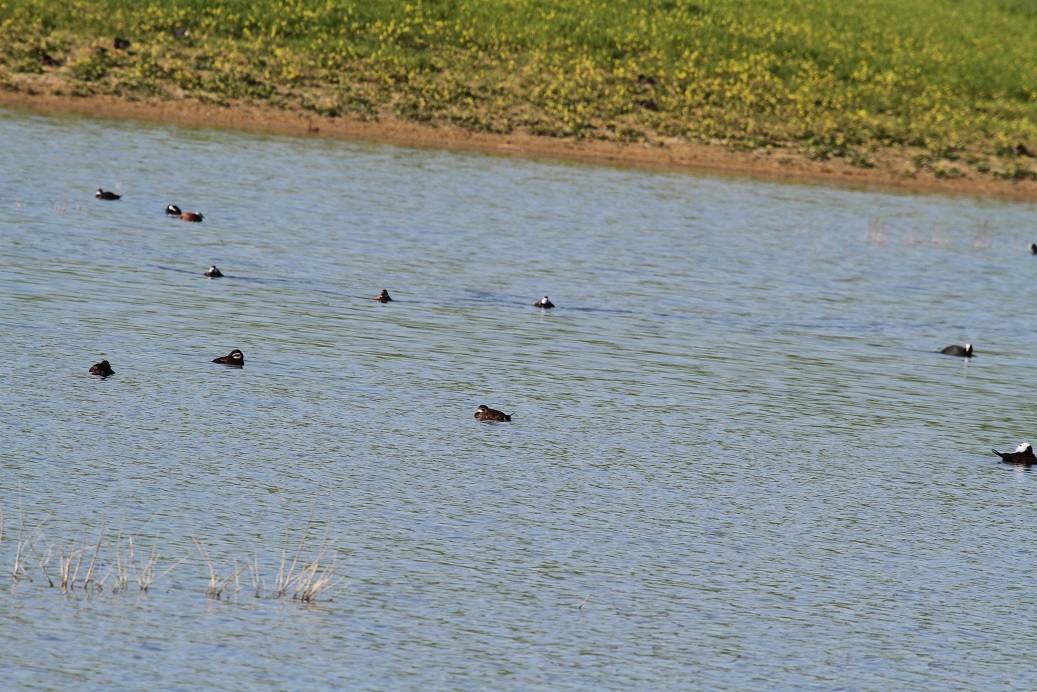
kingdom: Animalia
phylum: Chordata
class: Aves
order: Anseriformes
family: Anatidae
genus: Oxyura
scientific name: Oxyura leucocephala
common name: White-headed duck
